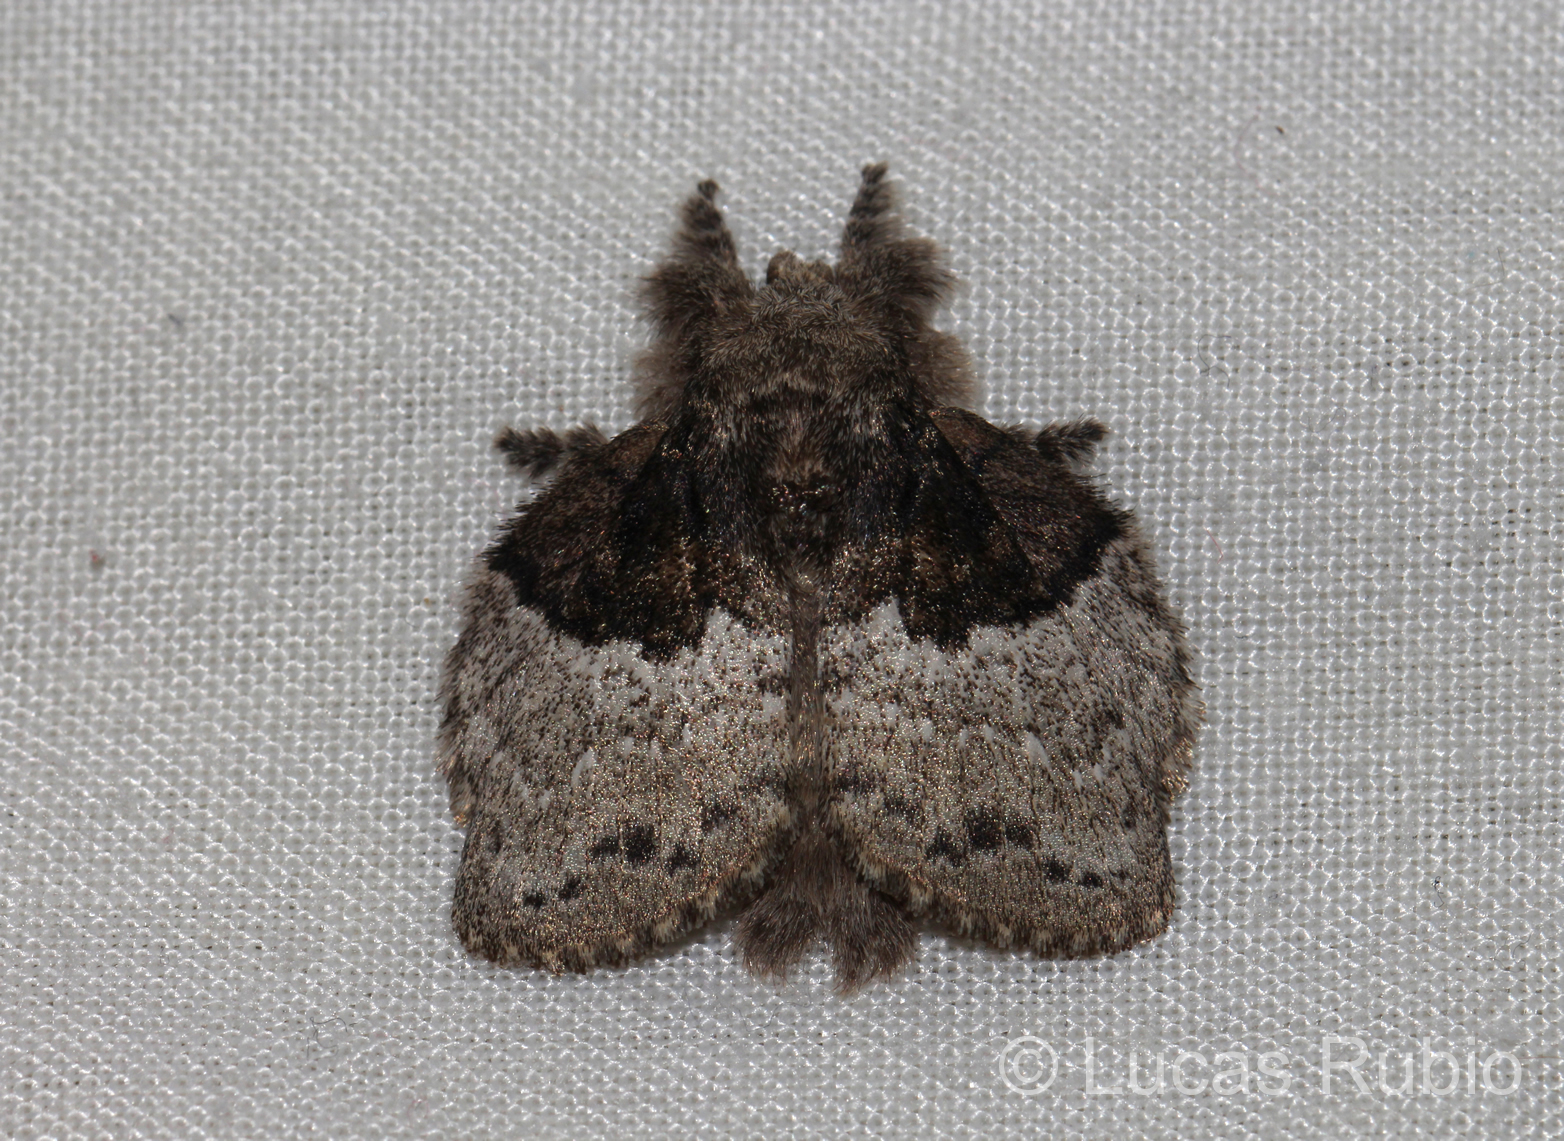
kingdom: Animalia
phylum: Arthropoda
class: Insecta
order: Lepidoptera
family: Lasiocampidae
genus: Euglyphis
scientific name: Euglyphis semifunebris
